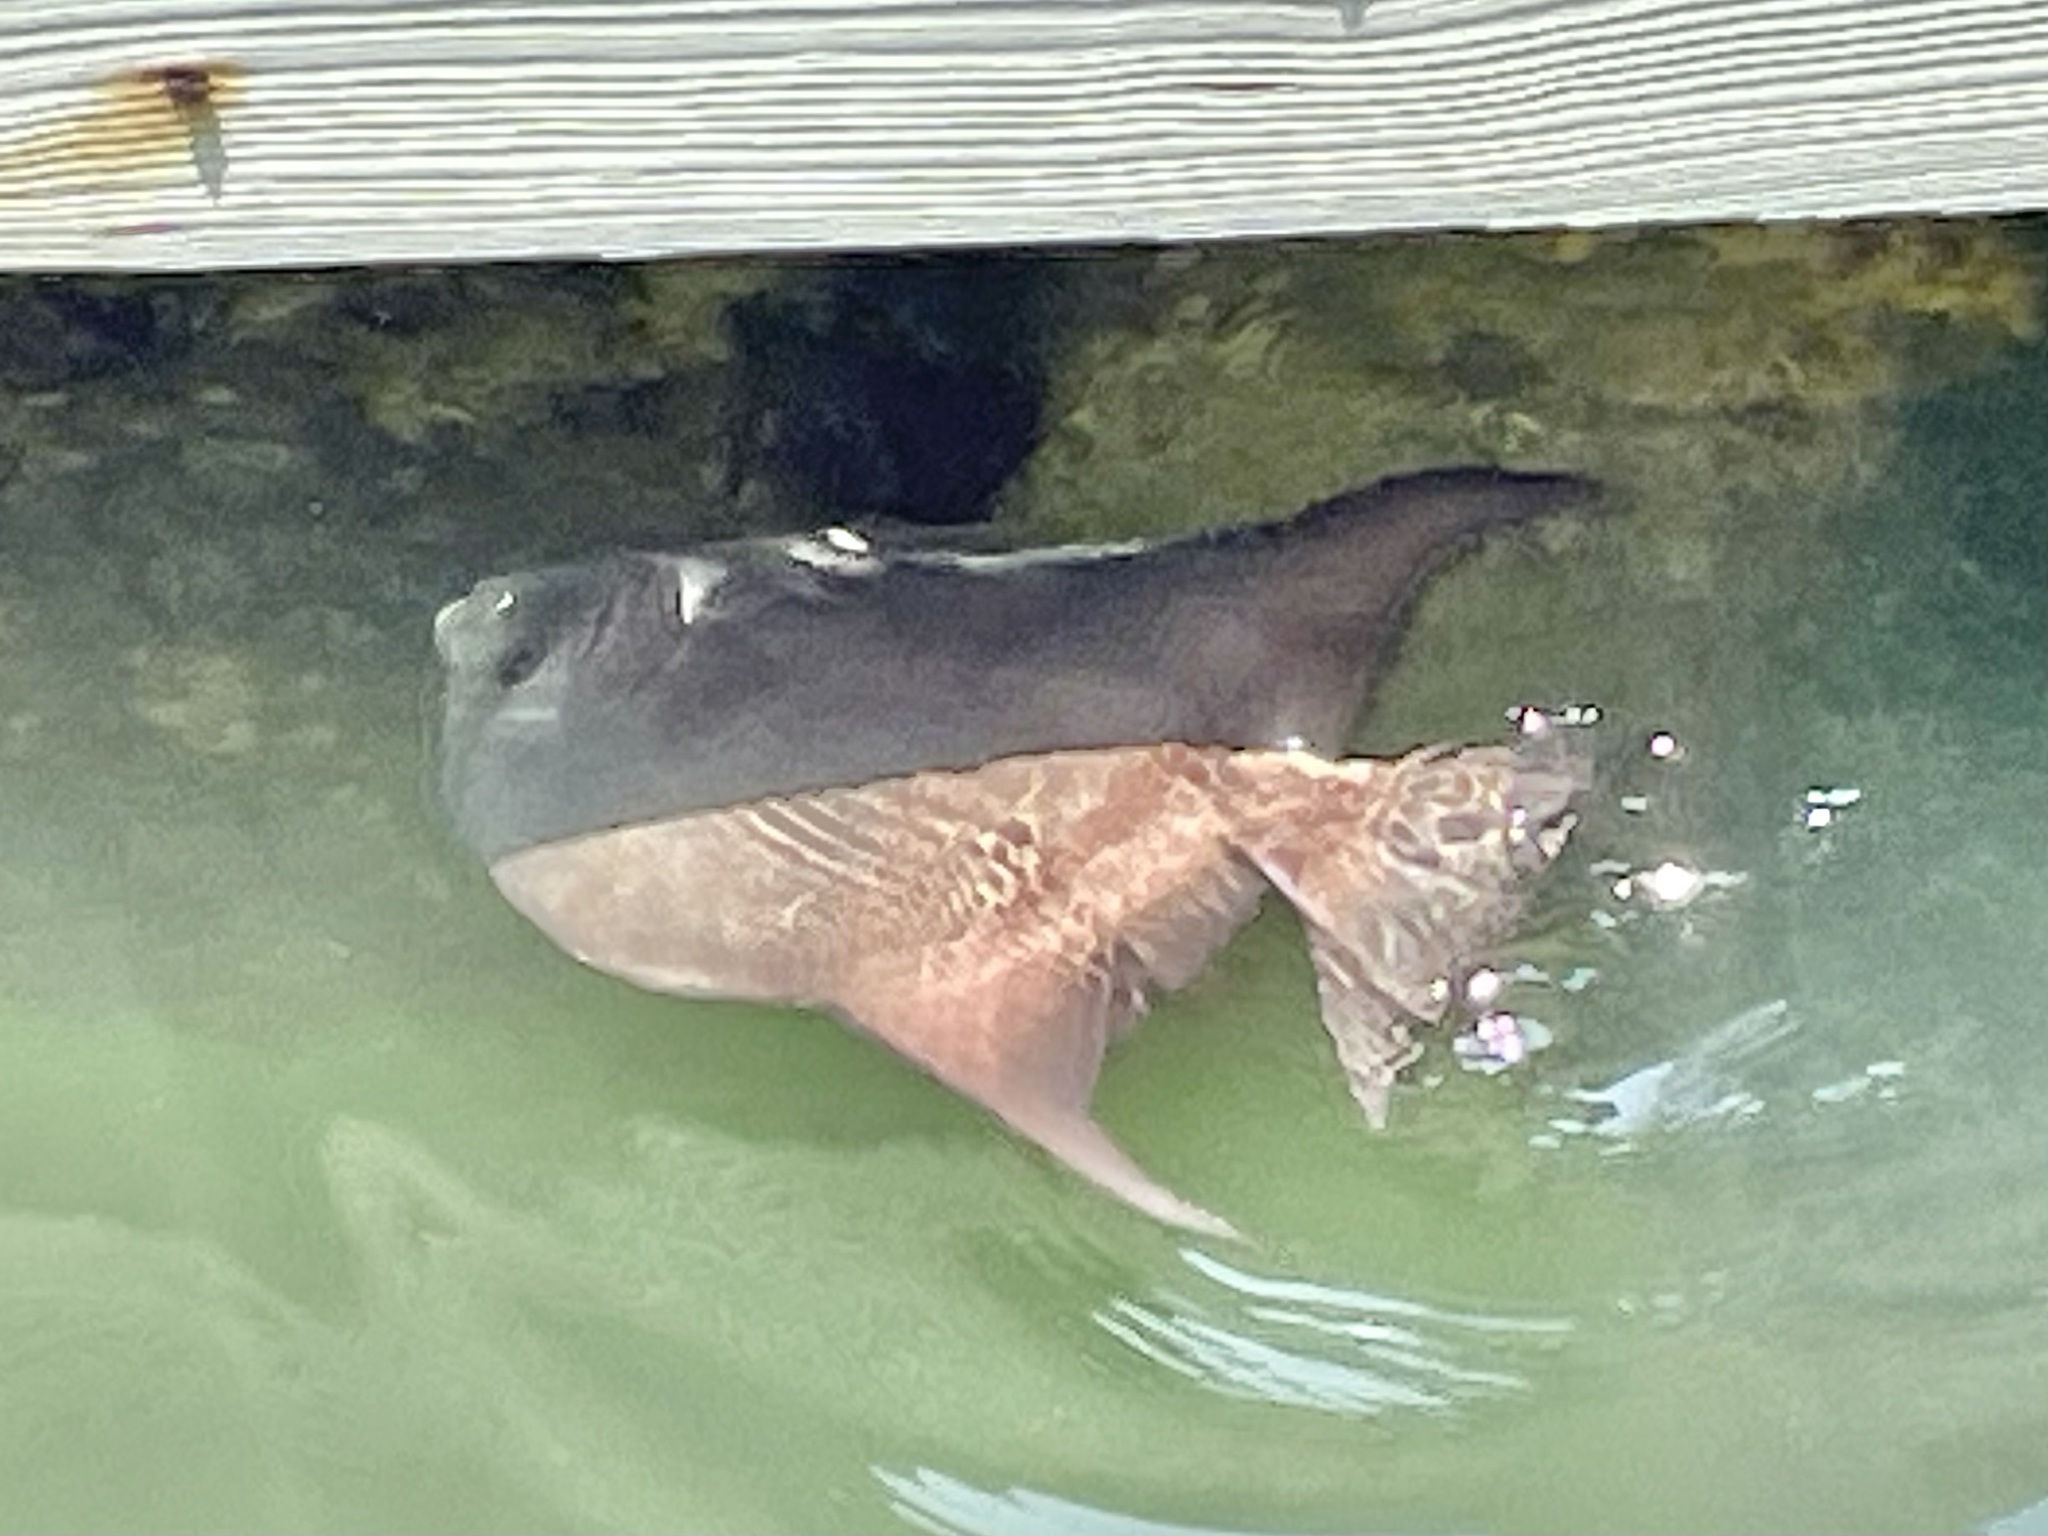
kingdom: Animalia
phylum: Chordata
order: Perciformes
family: Ephippidae
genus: Chaetodipterus
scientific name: Chaetodipterus faber
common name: Ocean cobbler
